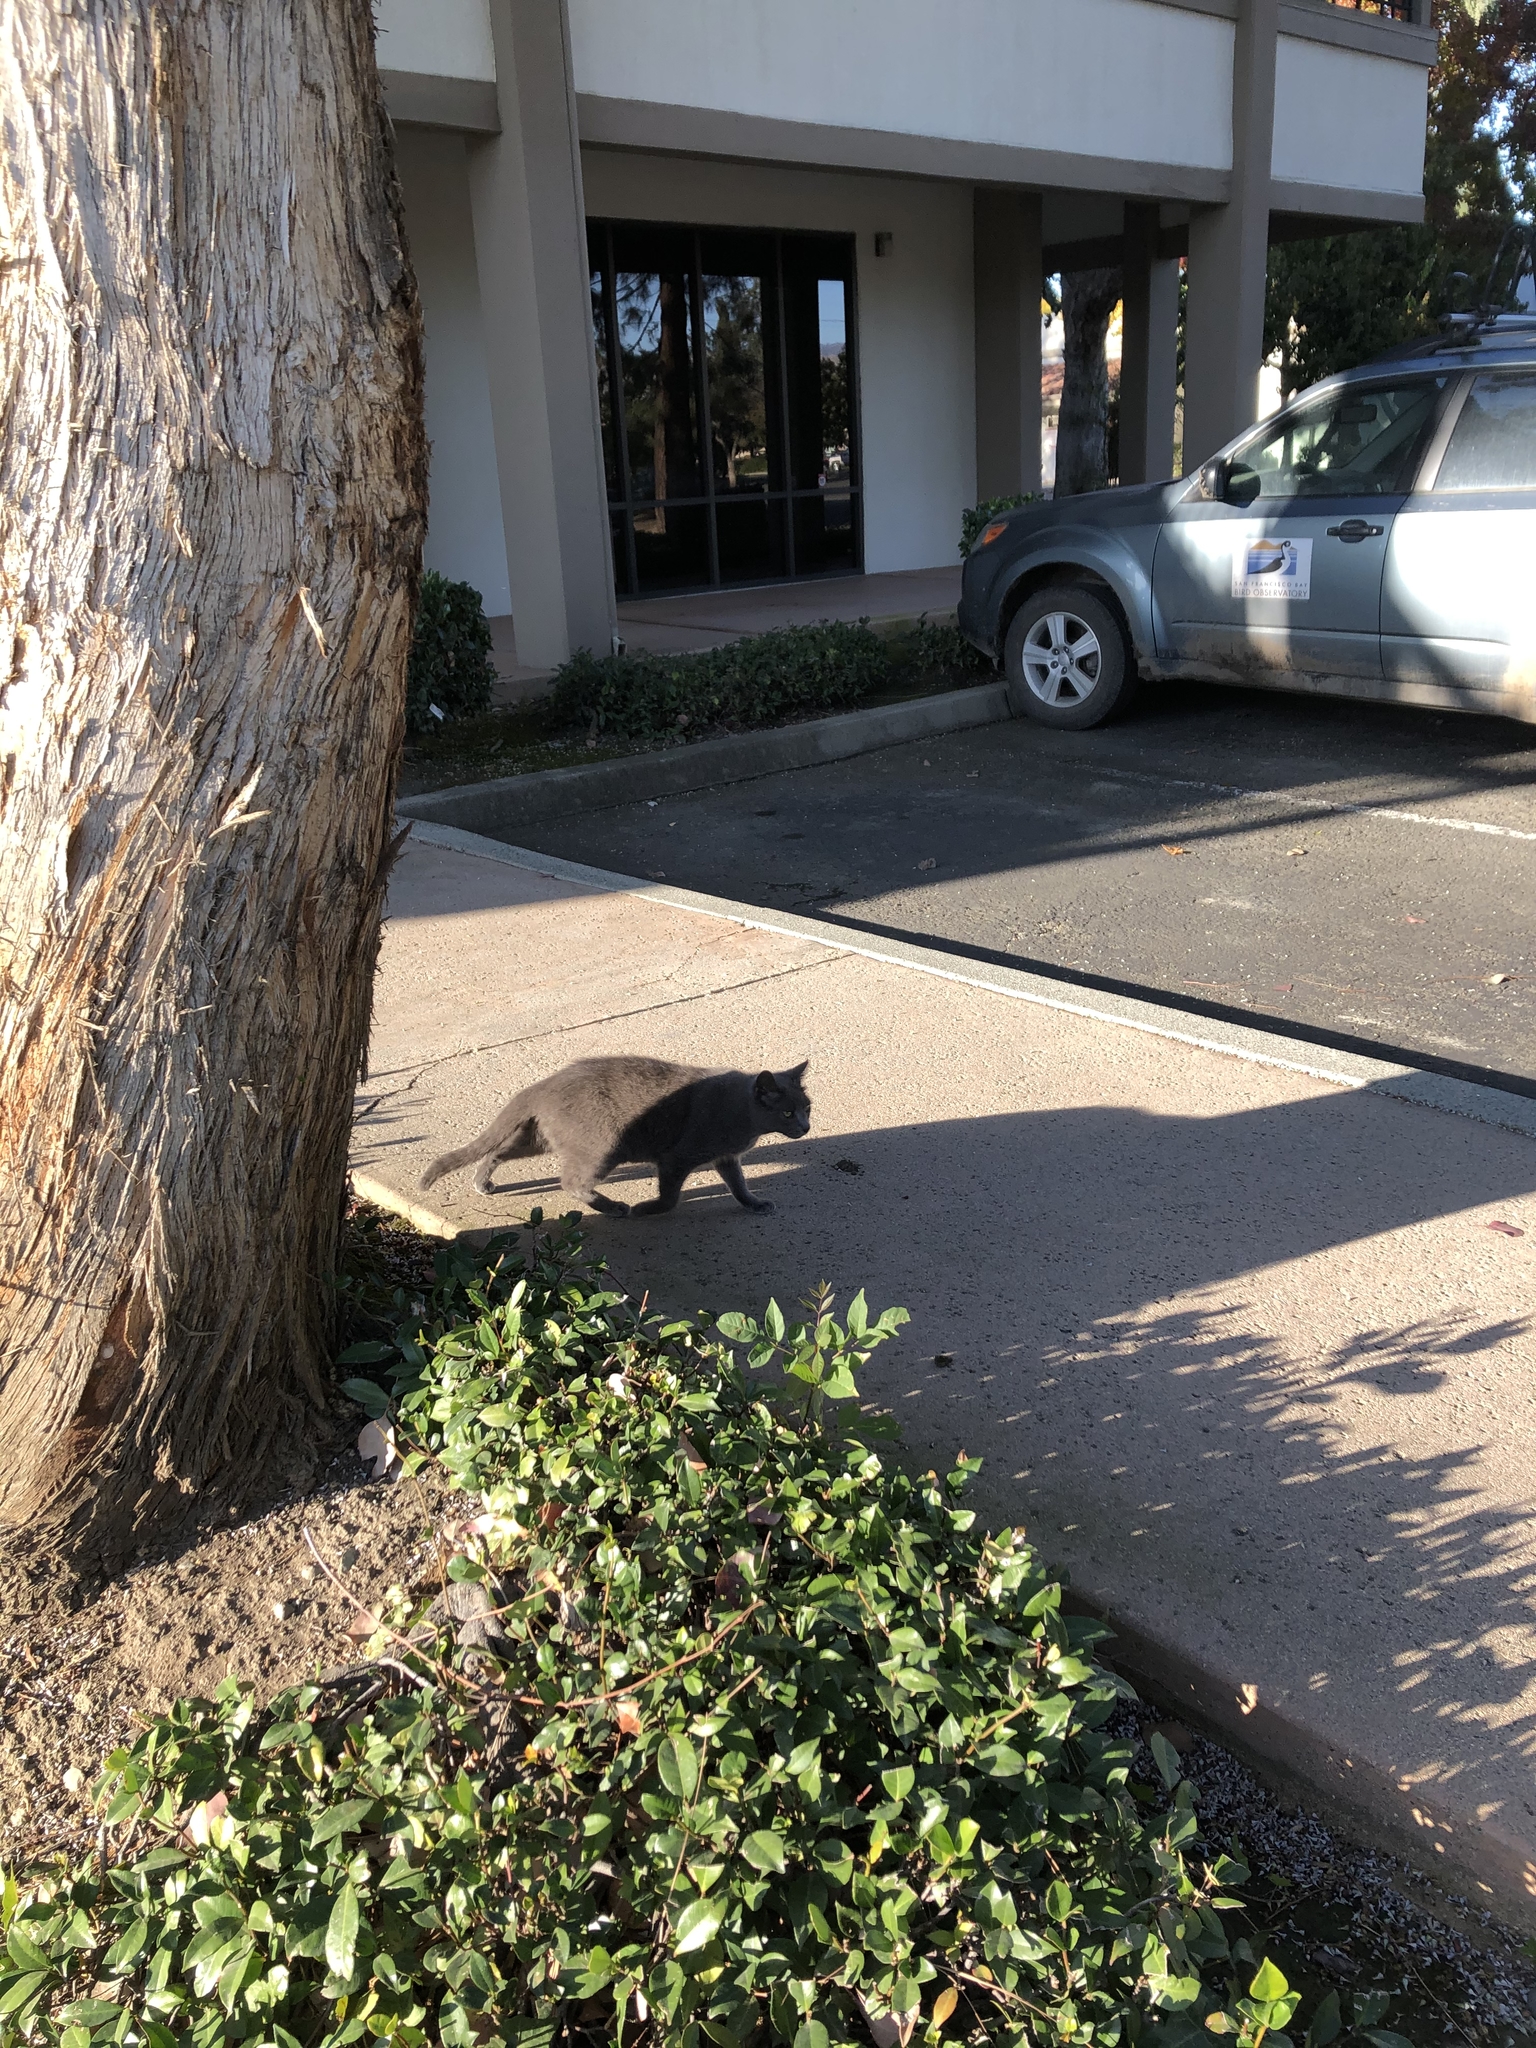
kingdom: Animalia
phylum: Chordata
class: Mammalia
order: Carnivora
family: Felidae
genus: Felis
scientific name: Felis catus
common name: Domestic cat
